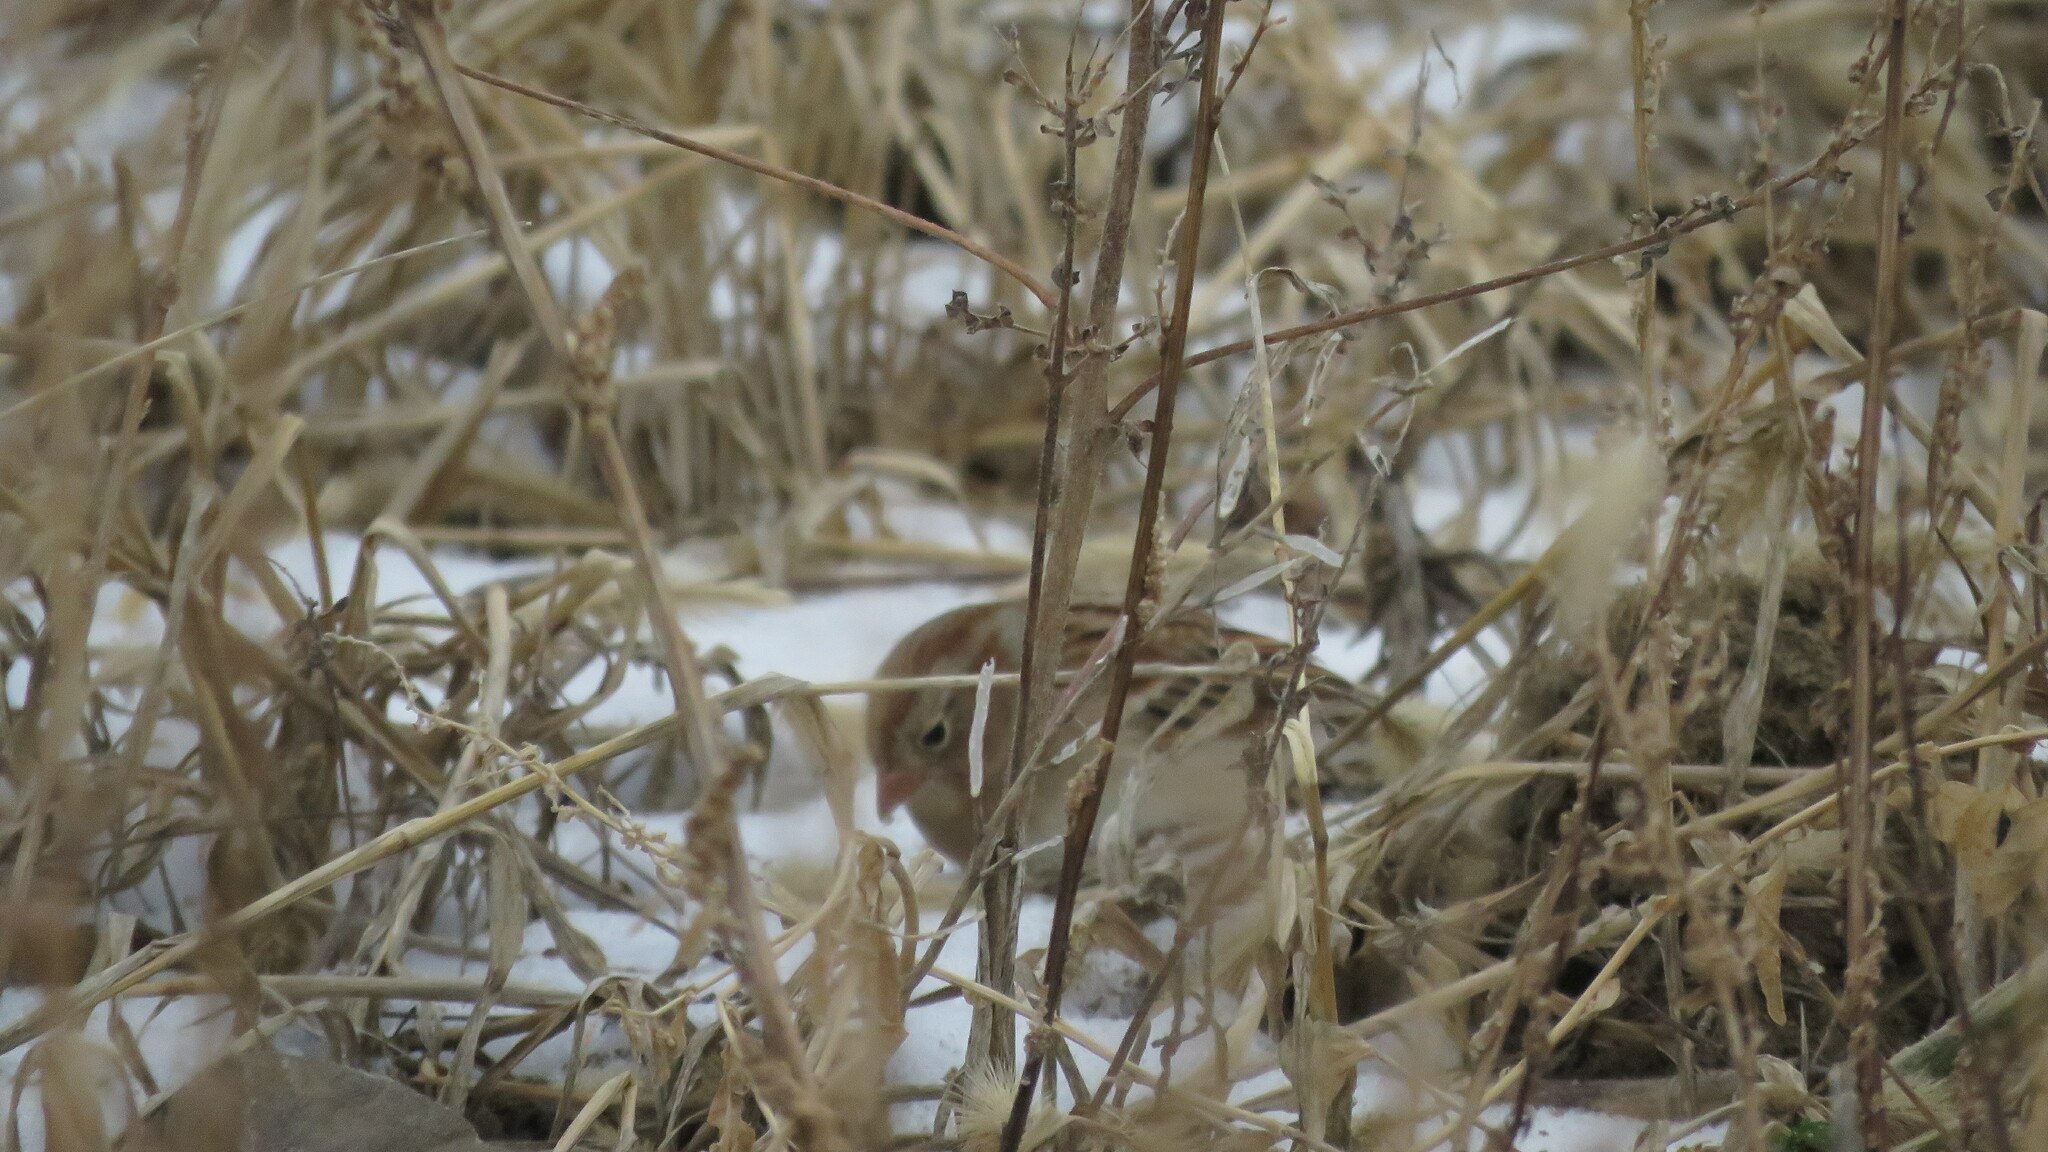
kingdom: Animalia
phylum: Chordata
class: Aves
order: Passeriformes
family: Passerellidae
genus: Spizella
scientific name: Spizella pusilla
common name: Field sparrow
